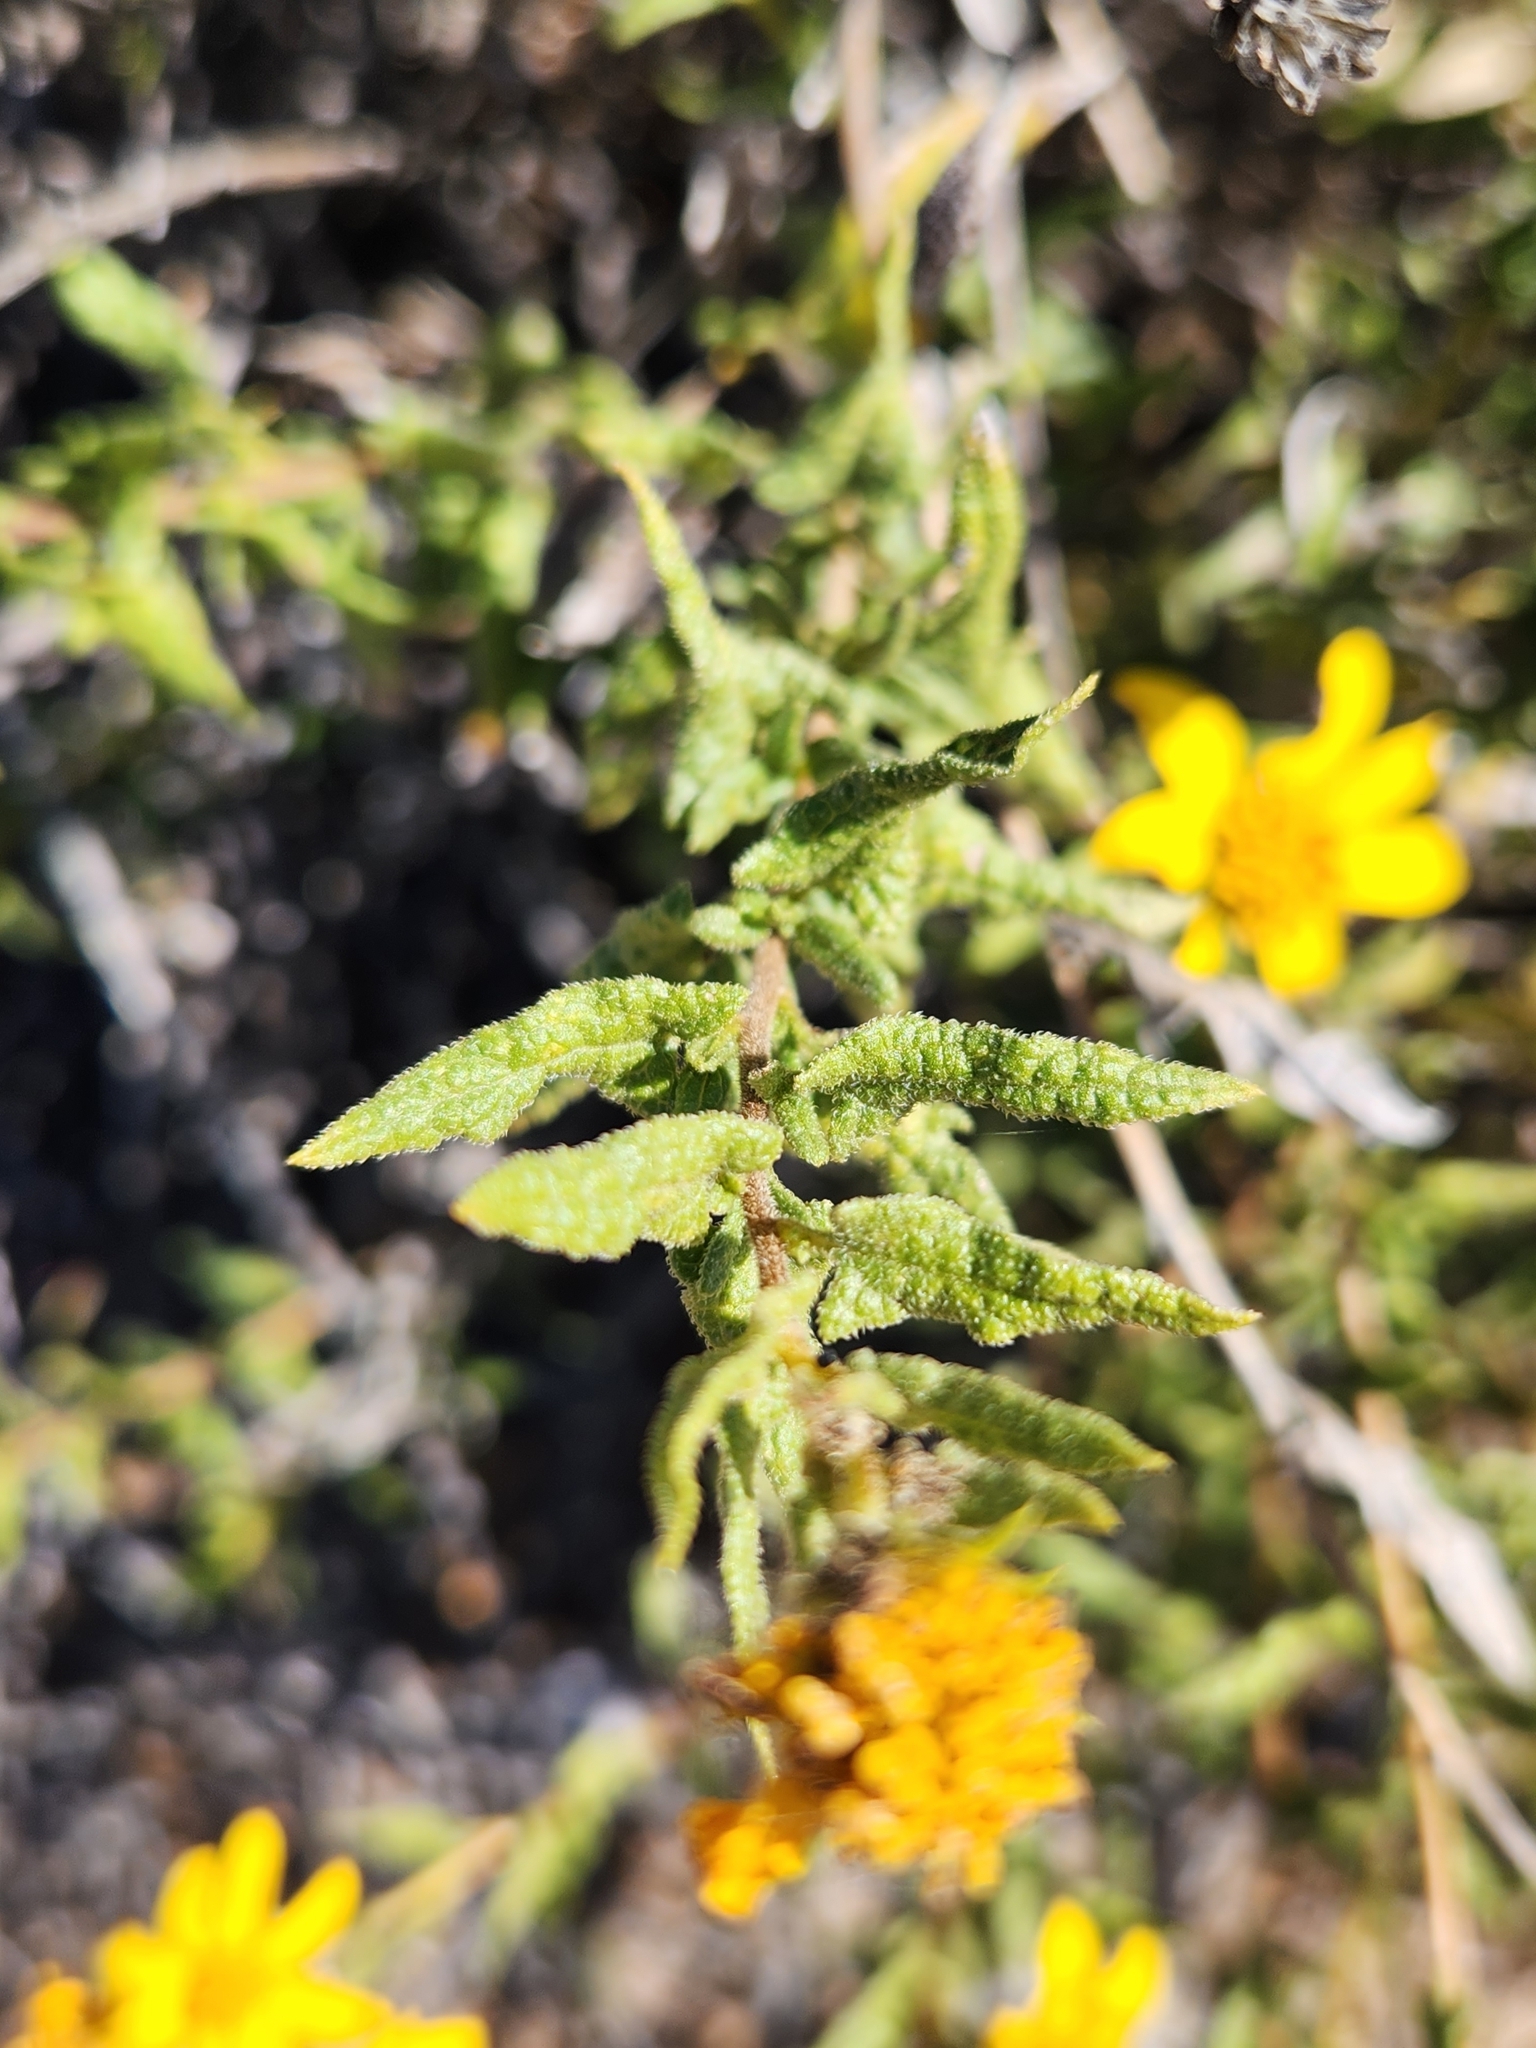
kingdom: Plantae
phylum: Tracheophyta
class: Magnoliopsida
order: Asterales
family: Asteraceae
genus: Bahiopsis
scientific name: Bahiopsis laciniata
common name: San diego county viguiera
